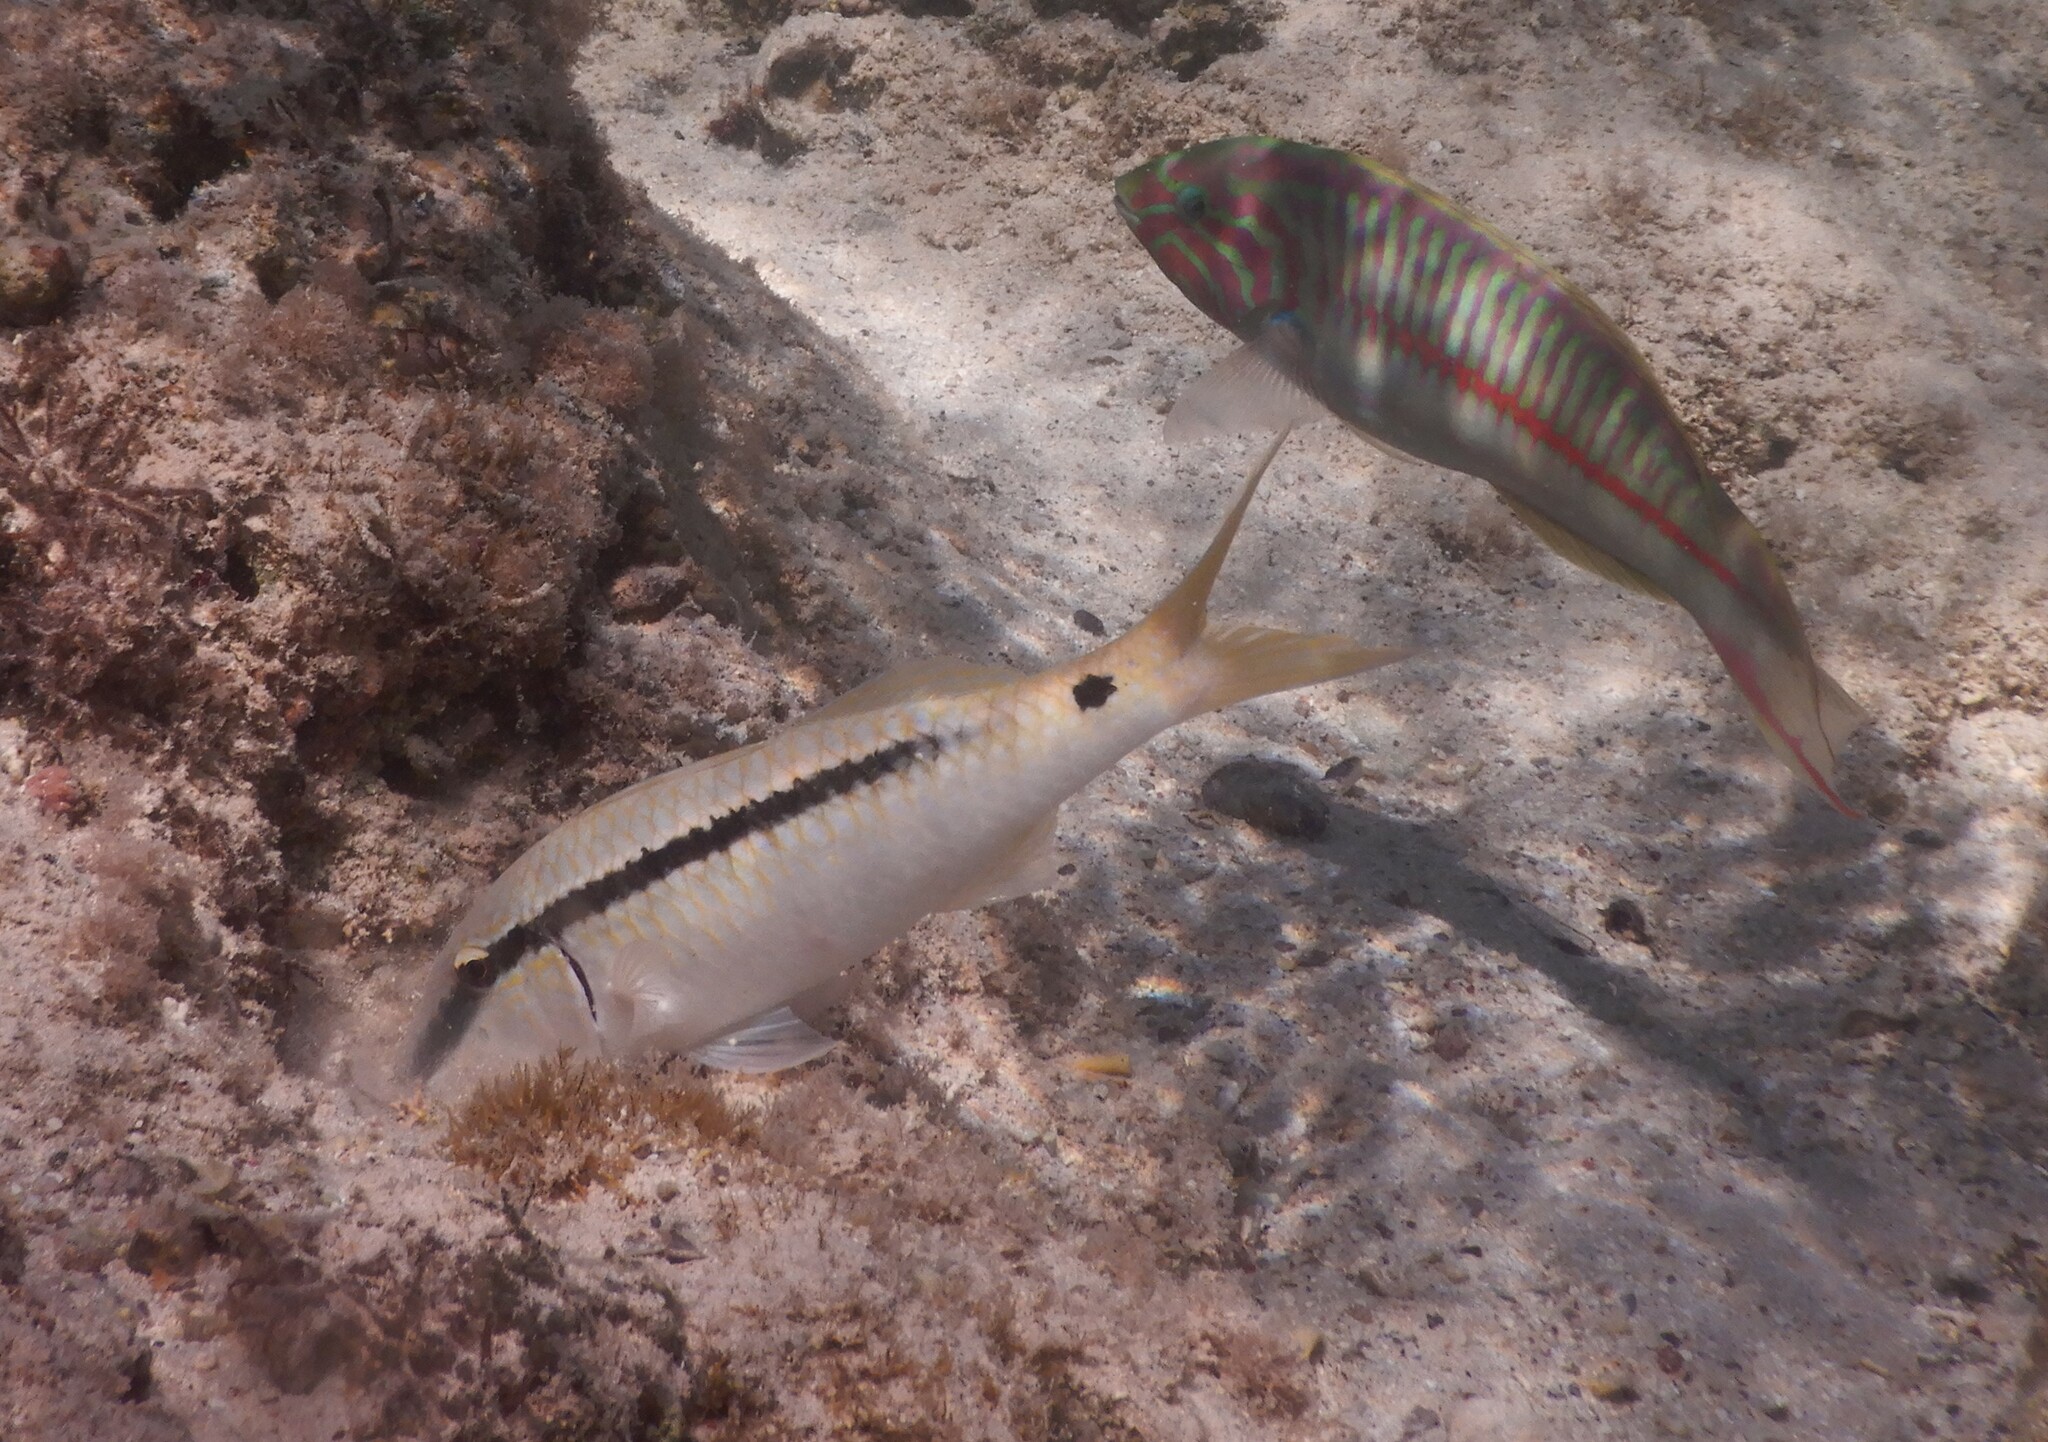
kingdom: Animalia
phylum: Chordata
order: Perciformes
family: Mullidae
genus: Parupeneus
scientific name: Parupeneus forsskali
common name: Red sea goatfish
